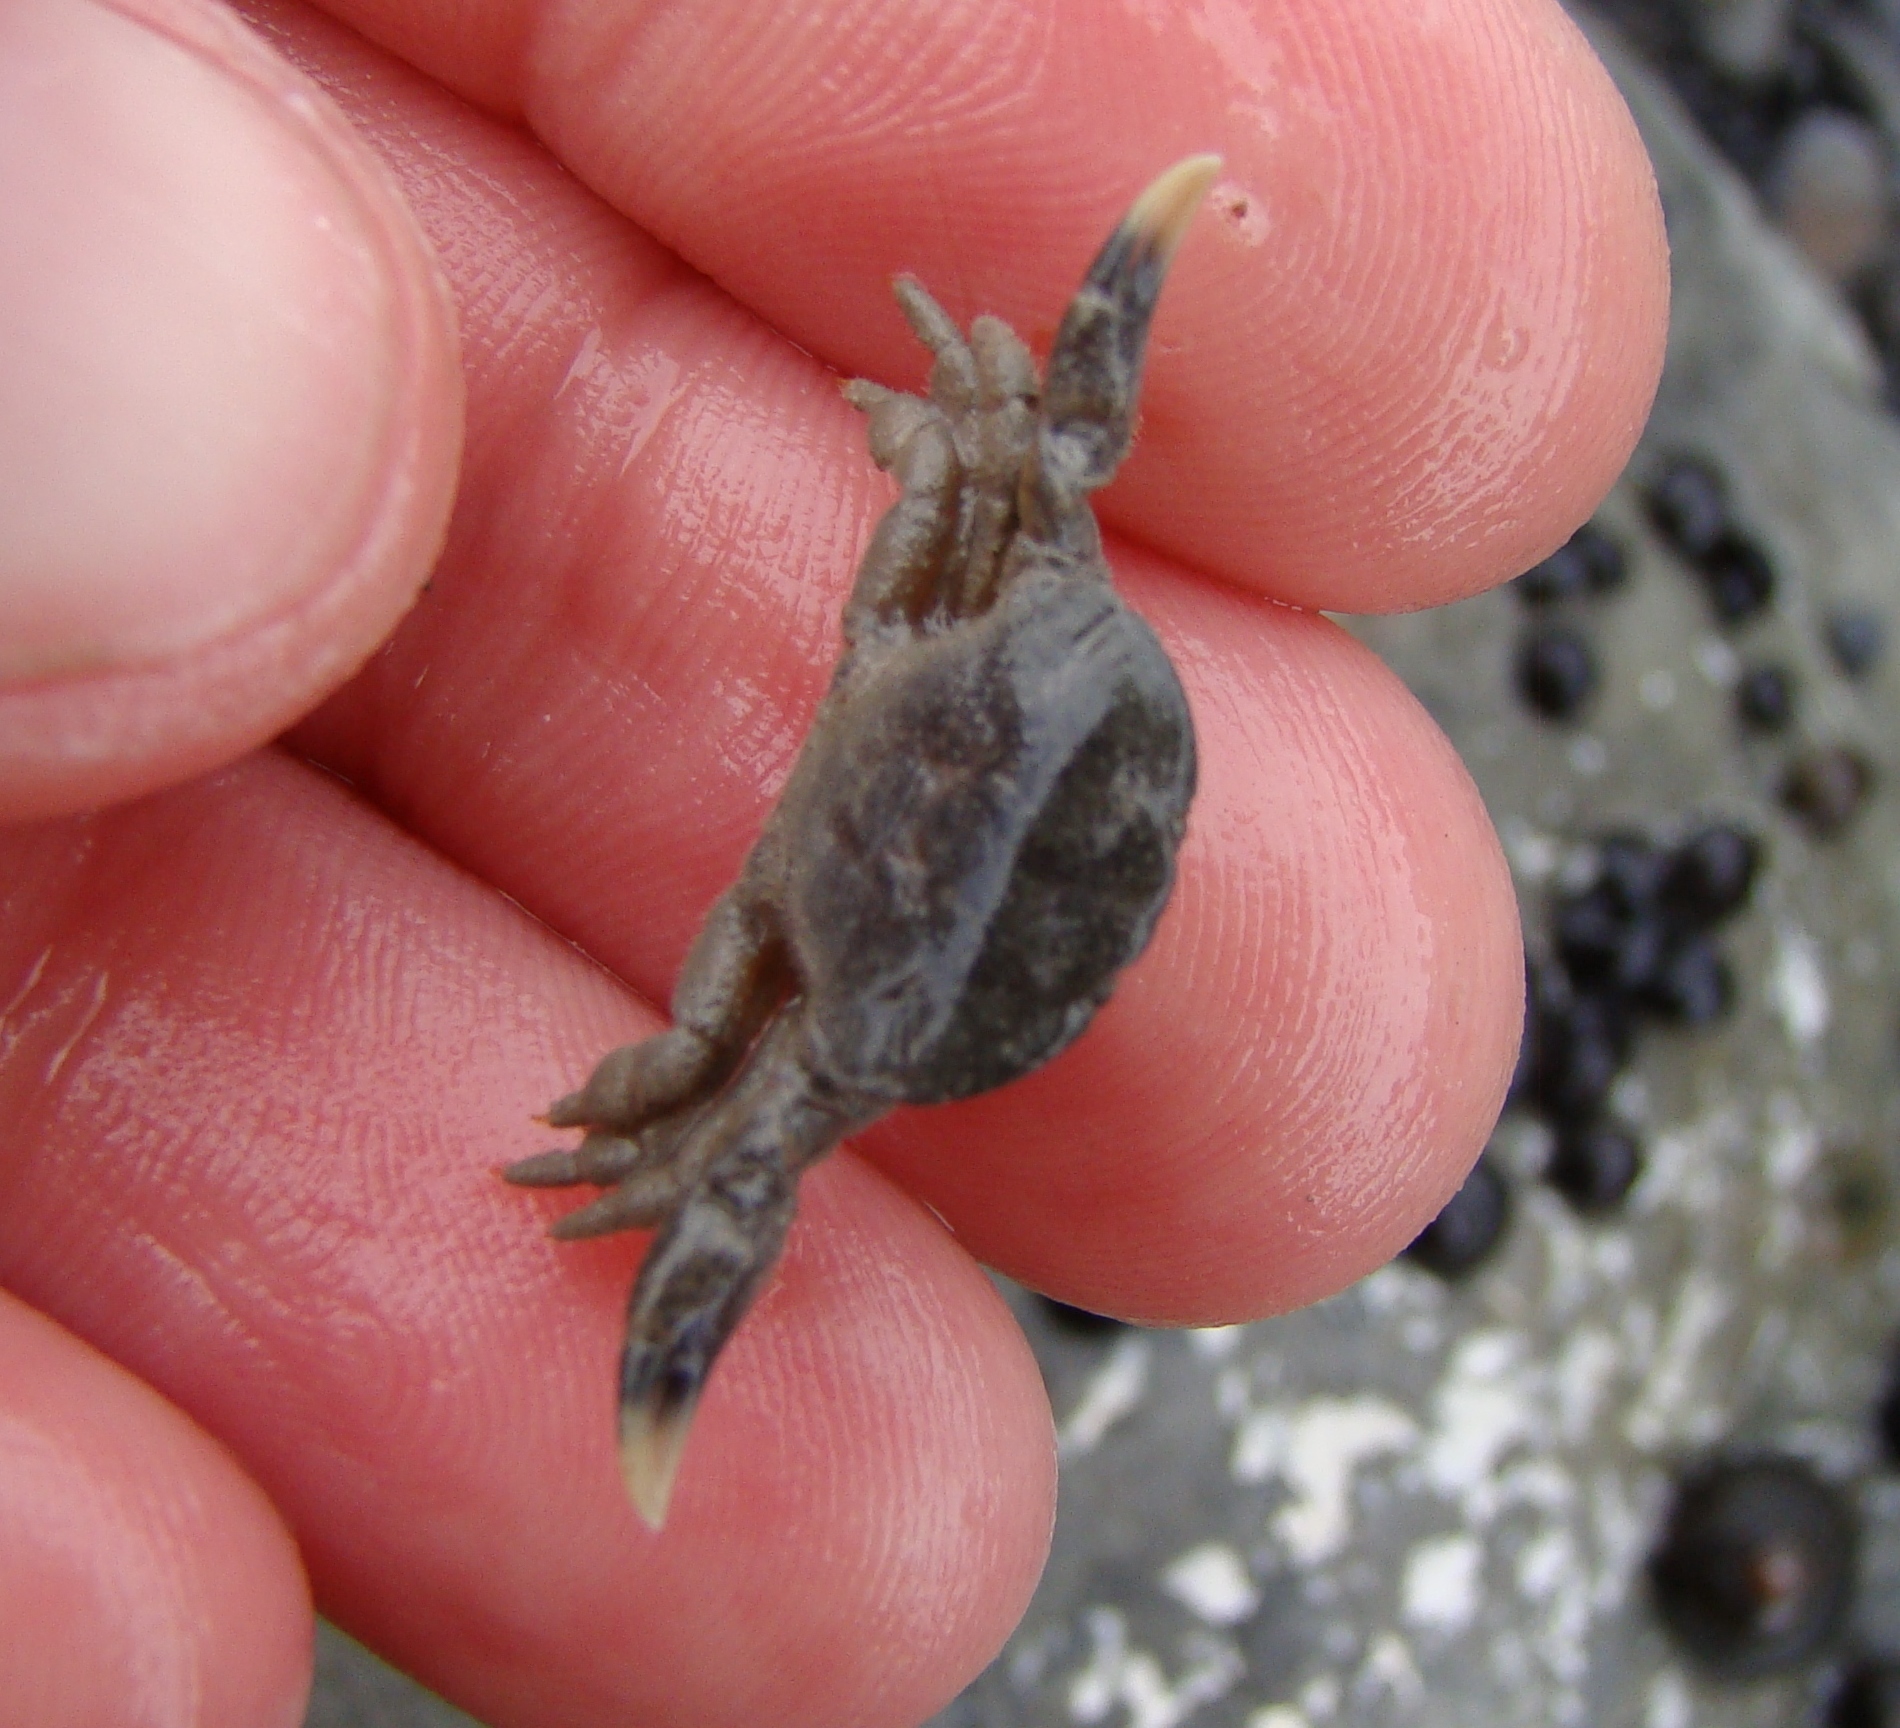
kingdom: Animalia
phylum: Arthropoda
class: Malacostraca
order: Decapoda
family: Heteroziidae
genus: Heterozius
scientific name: Heterozius rotundifrons
